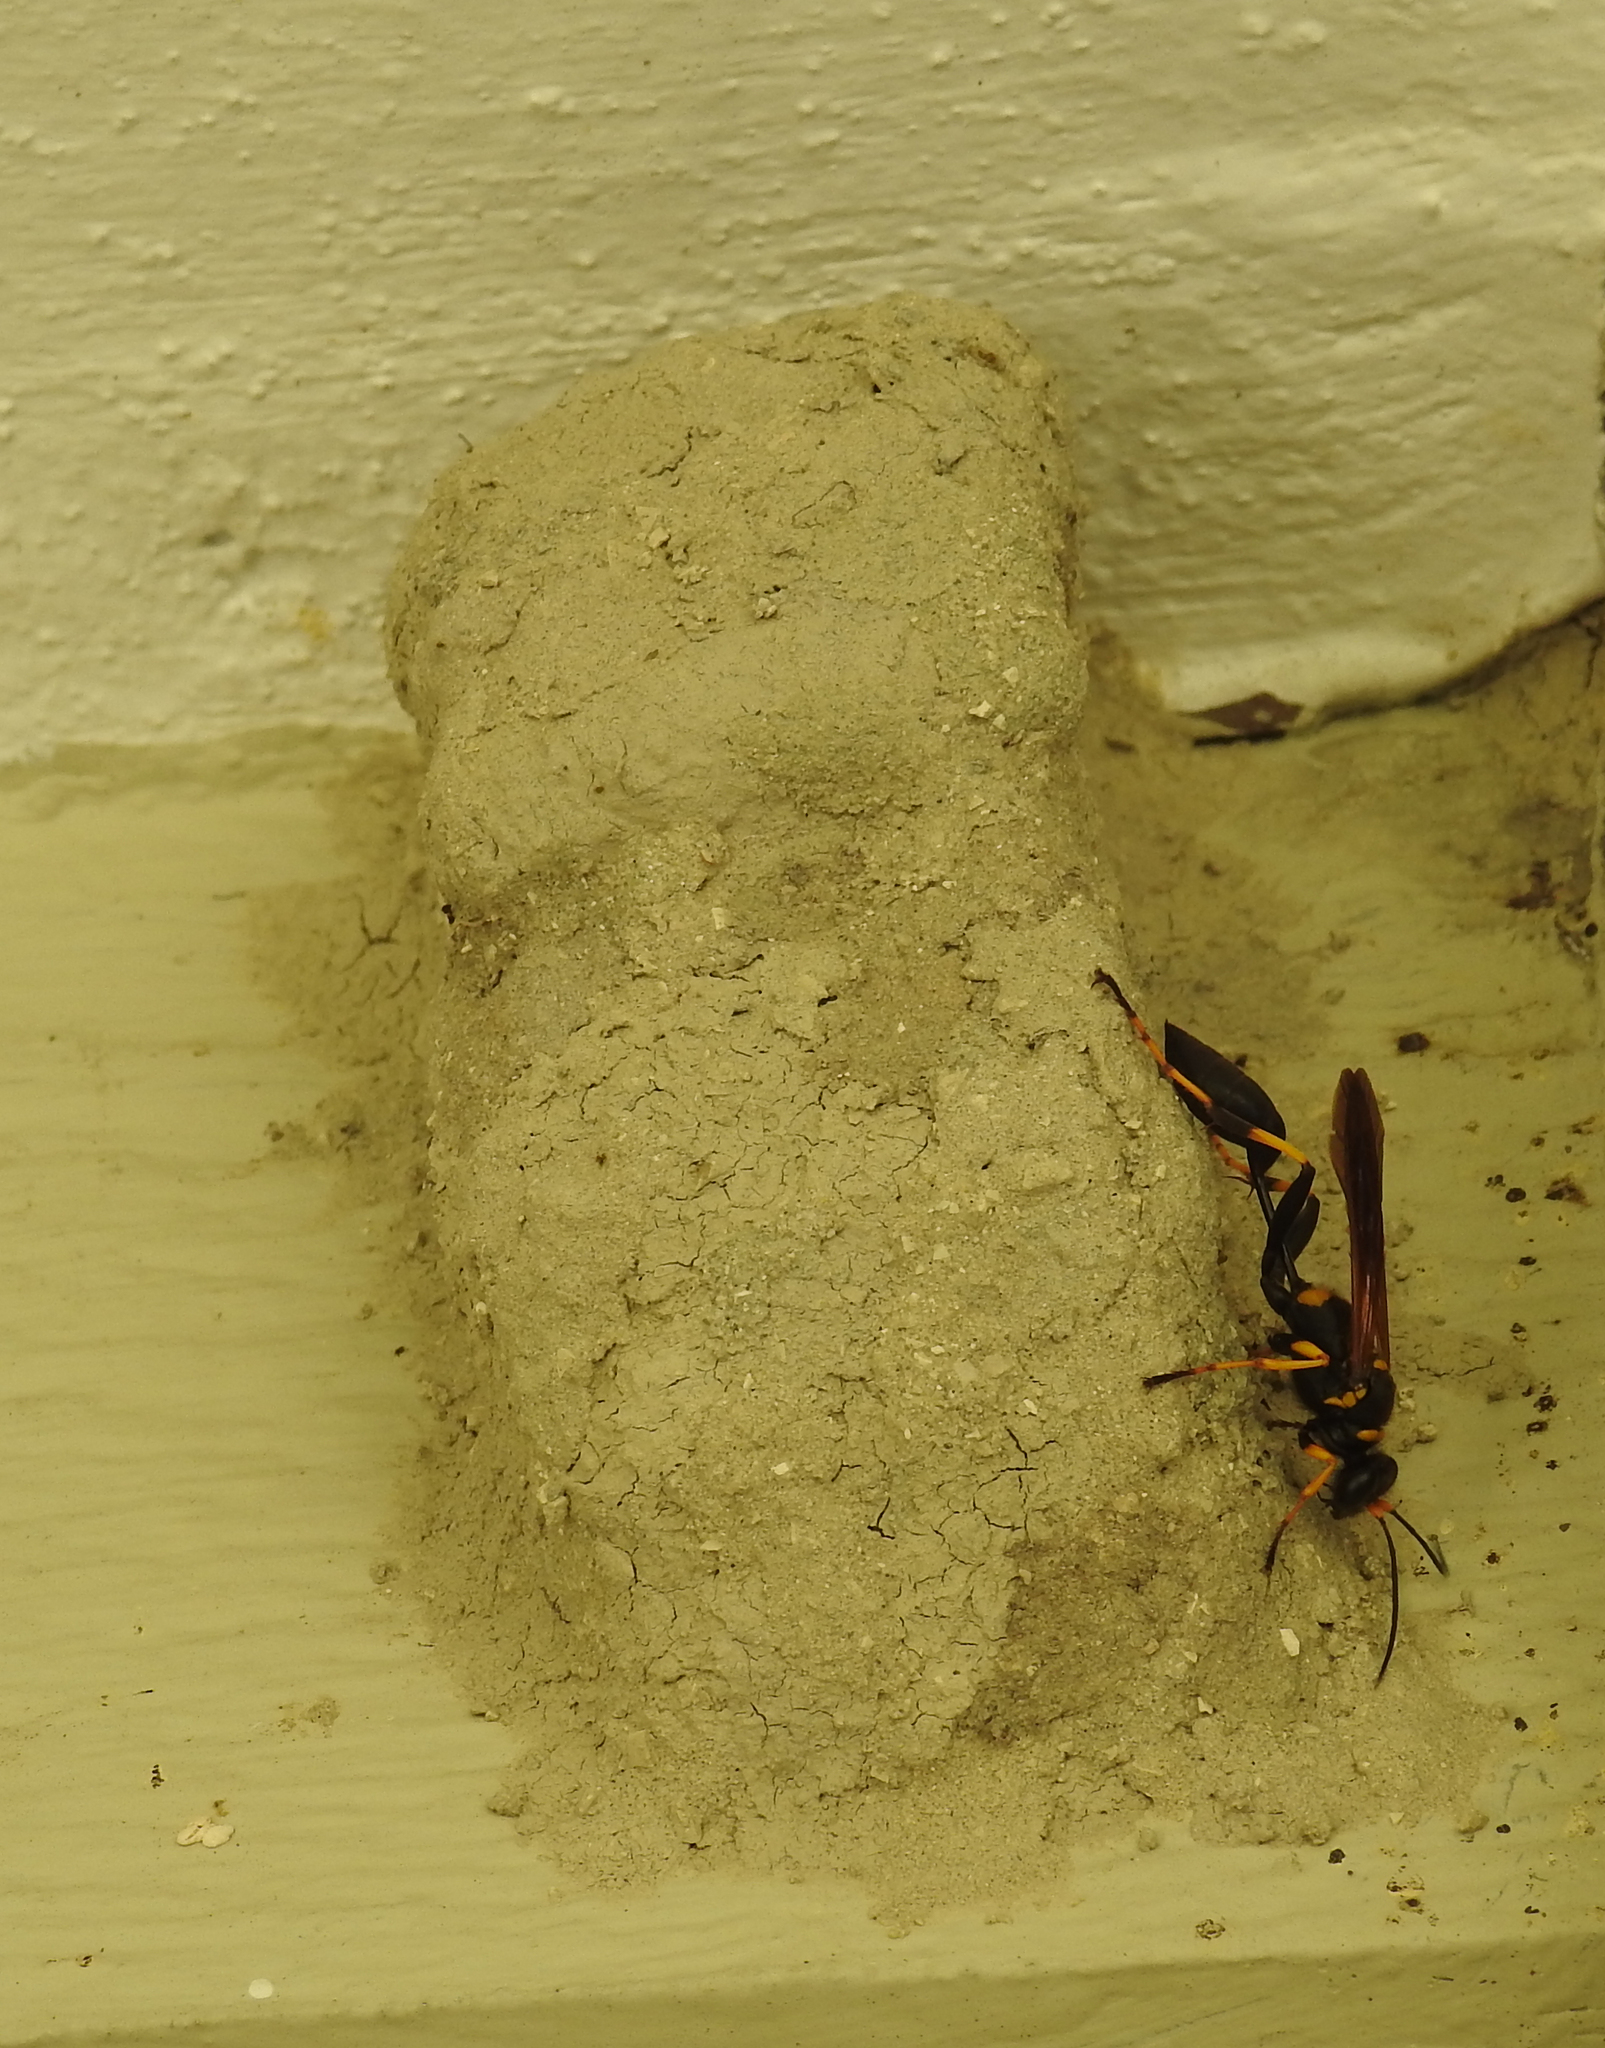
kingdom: Animalia
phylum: Arthropoda
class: Insecta
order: Hymenoptera
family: Sphecidae
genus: Sceliphron
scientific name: Sceliphron caementarium
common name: Mud dauber
